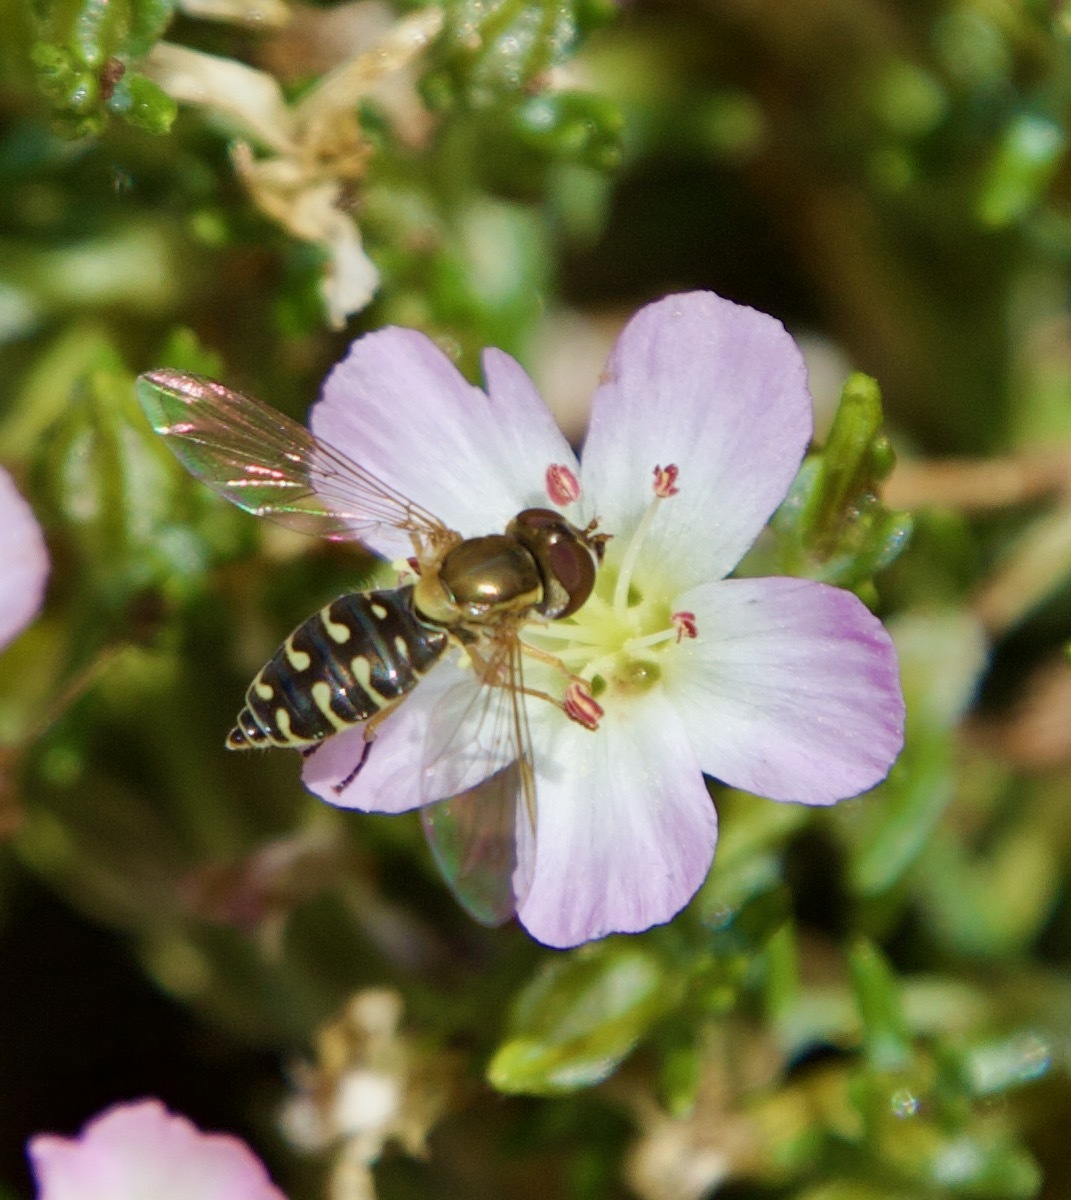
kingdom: Animalia
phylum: Arthropoda
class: Insecta
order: Diptera
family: Syrphidae
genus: Toxomerus
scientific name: Toxomerus vertebratus
